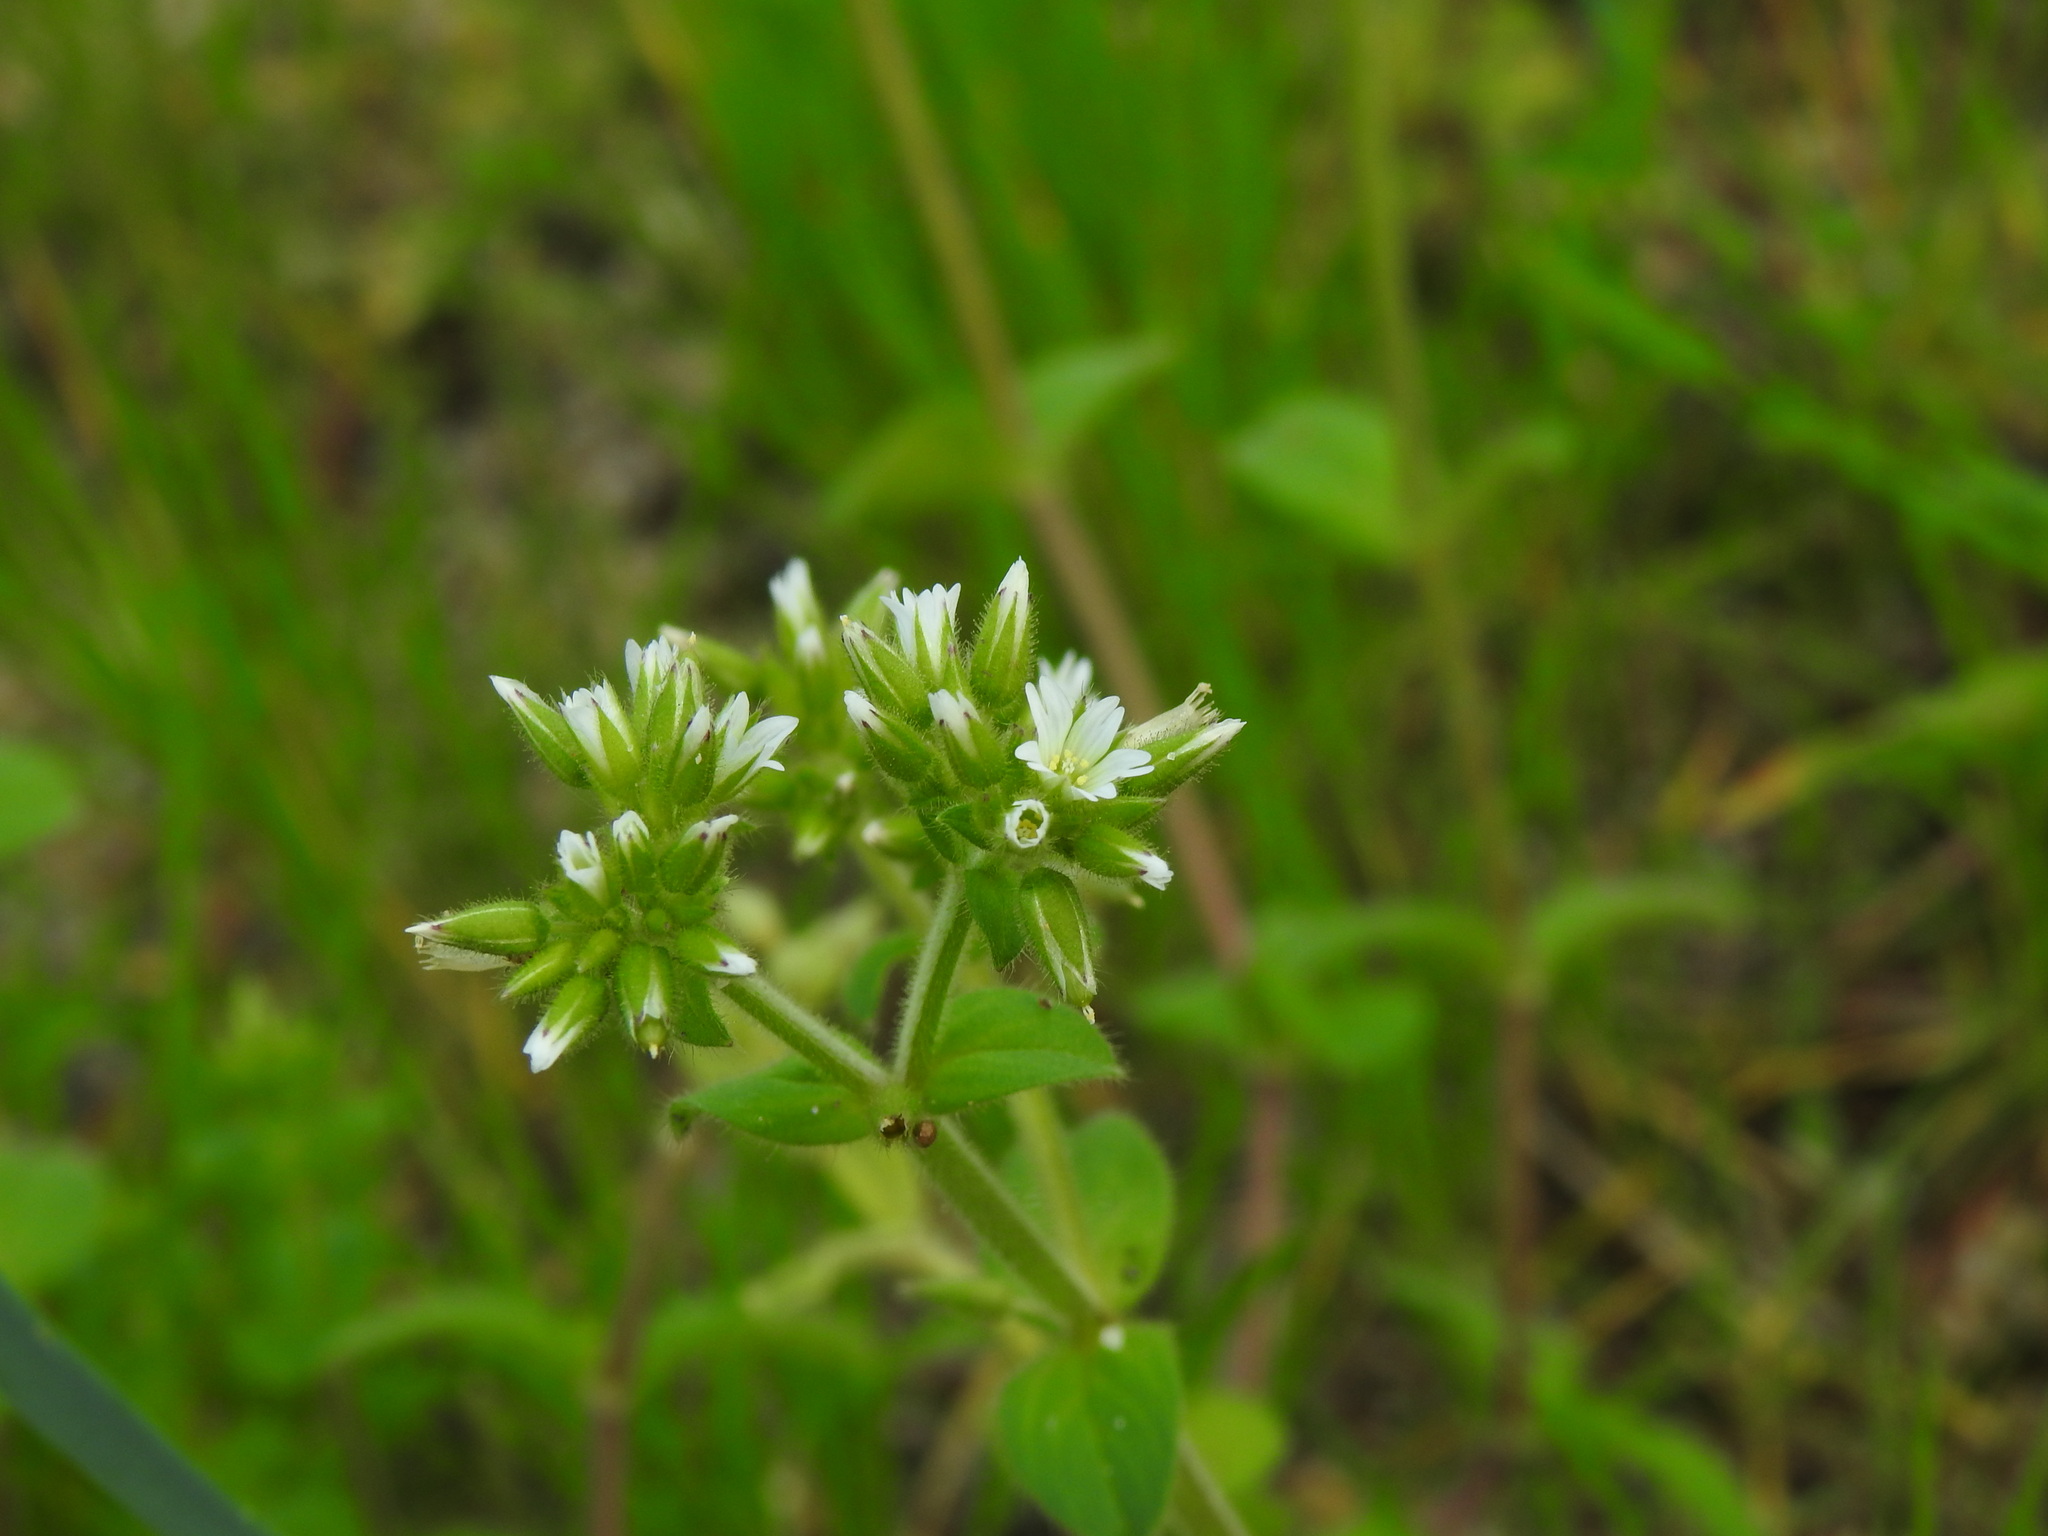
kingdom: Plantae
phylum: Tracheophyta
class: Magnoliopsida
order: Caryophyllales
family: Caryophyllaceae
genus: Cerastium
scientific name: Cerastium glomeratum
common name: Sticky chickweed
